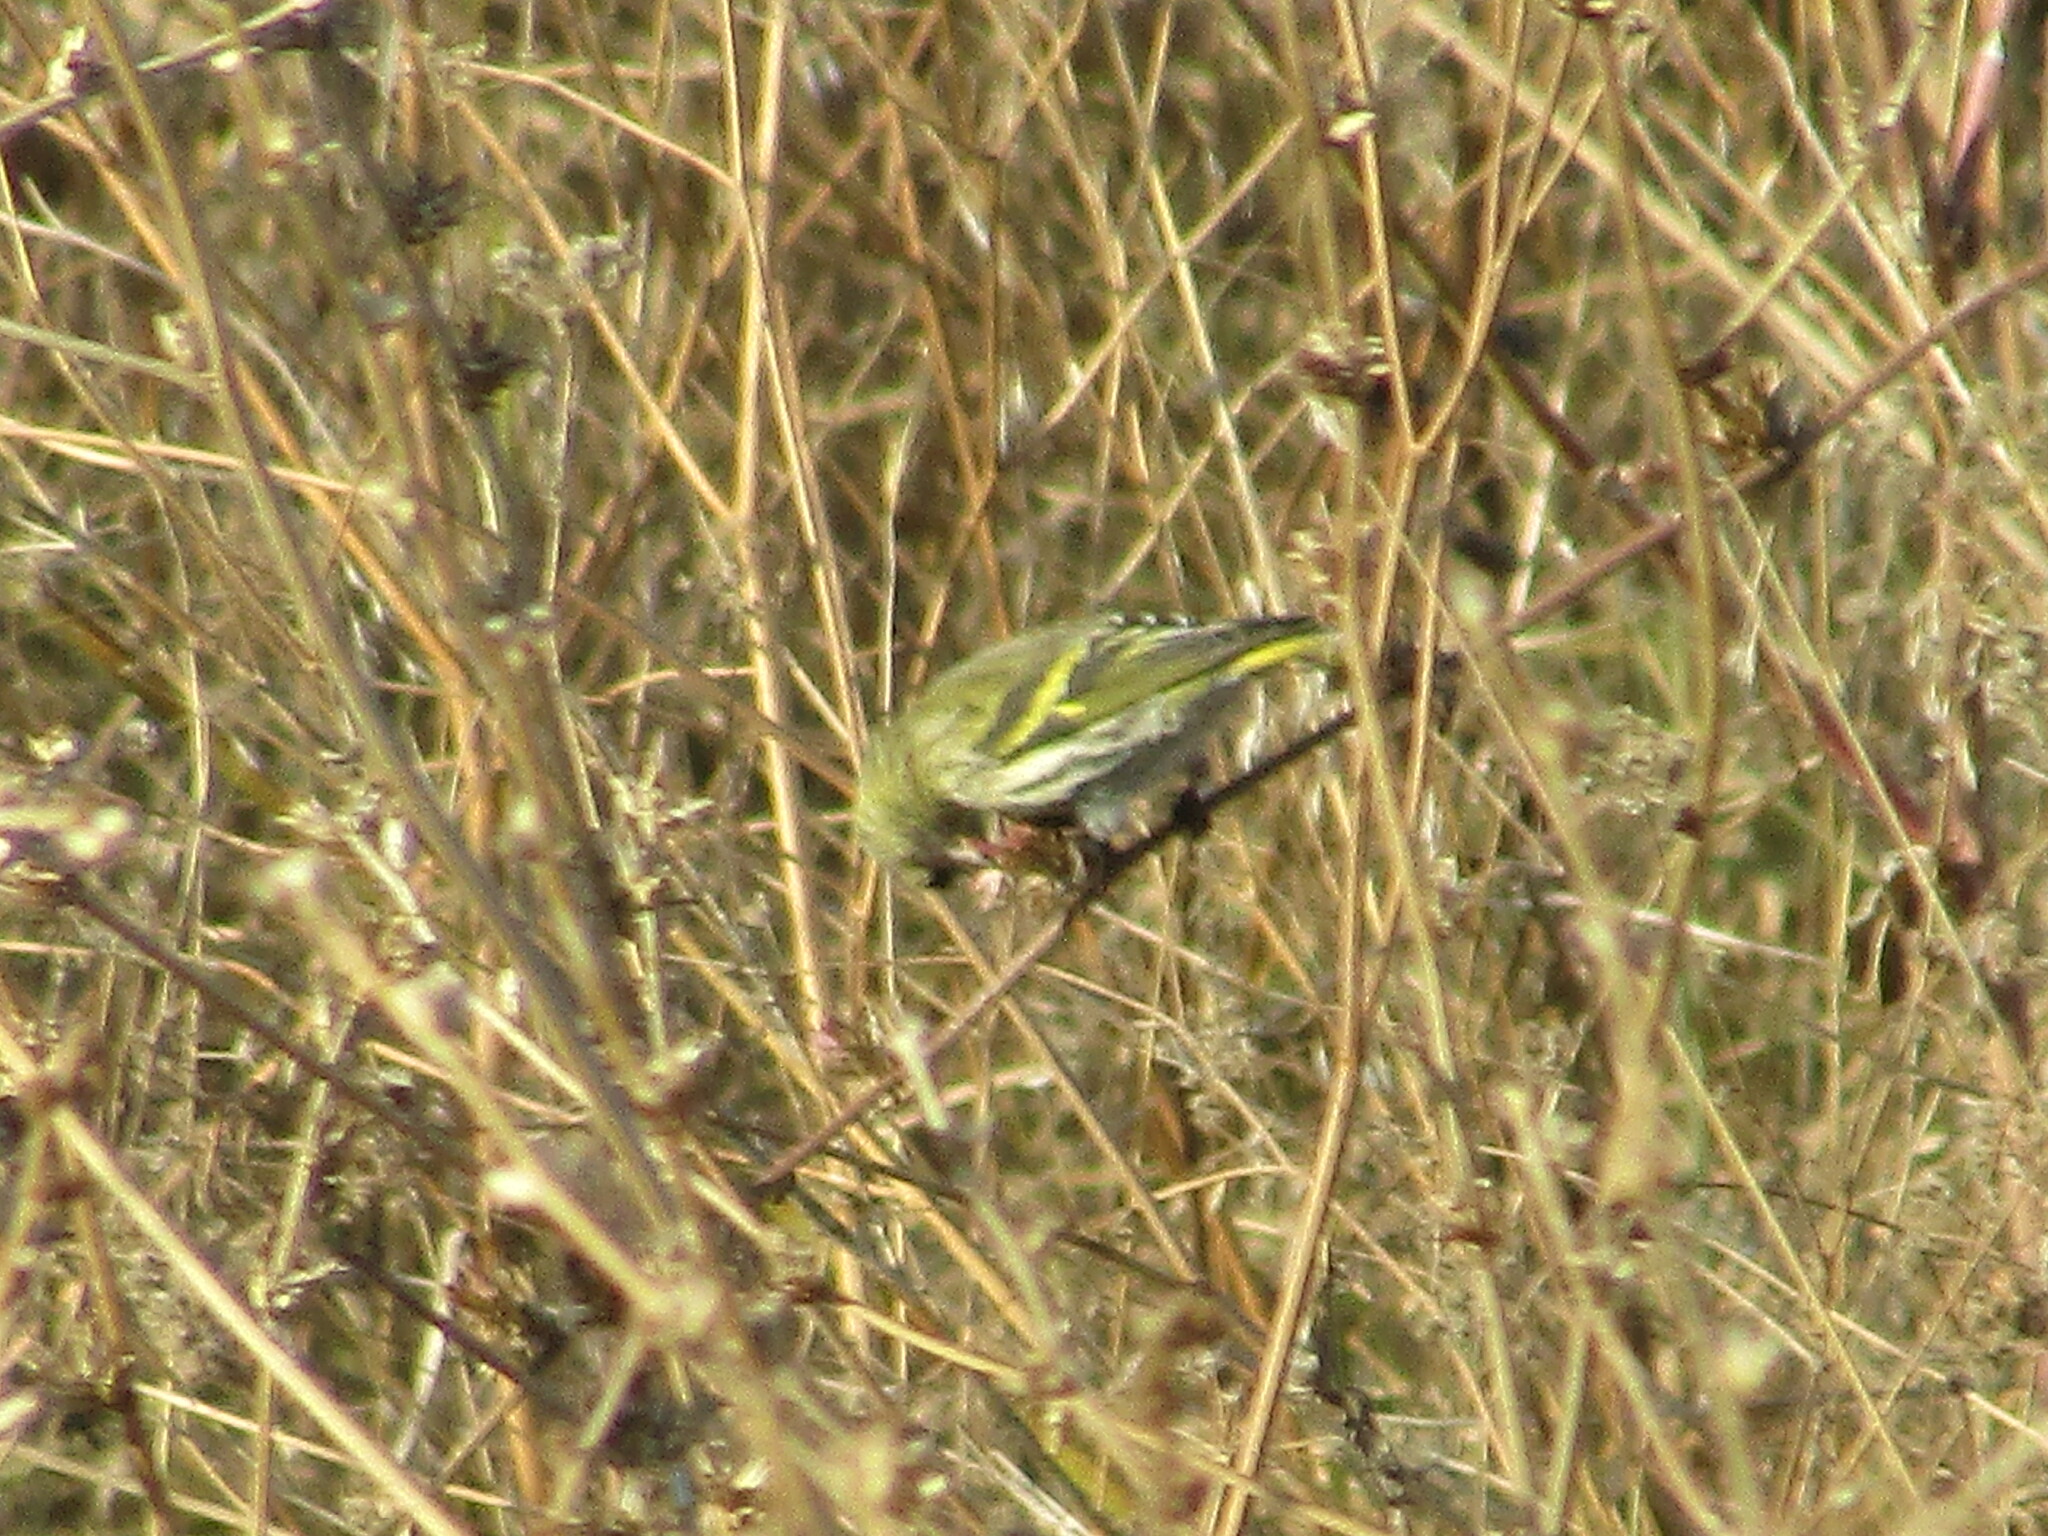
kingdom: Animalia
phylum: Chordata
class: Aves
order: Passeriformes
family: Fringillidae
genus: Spinus
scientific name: Spinus spinus
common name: Eurasian siskin
